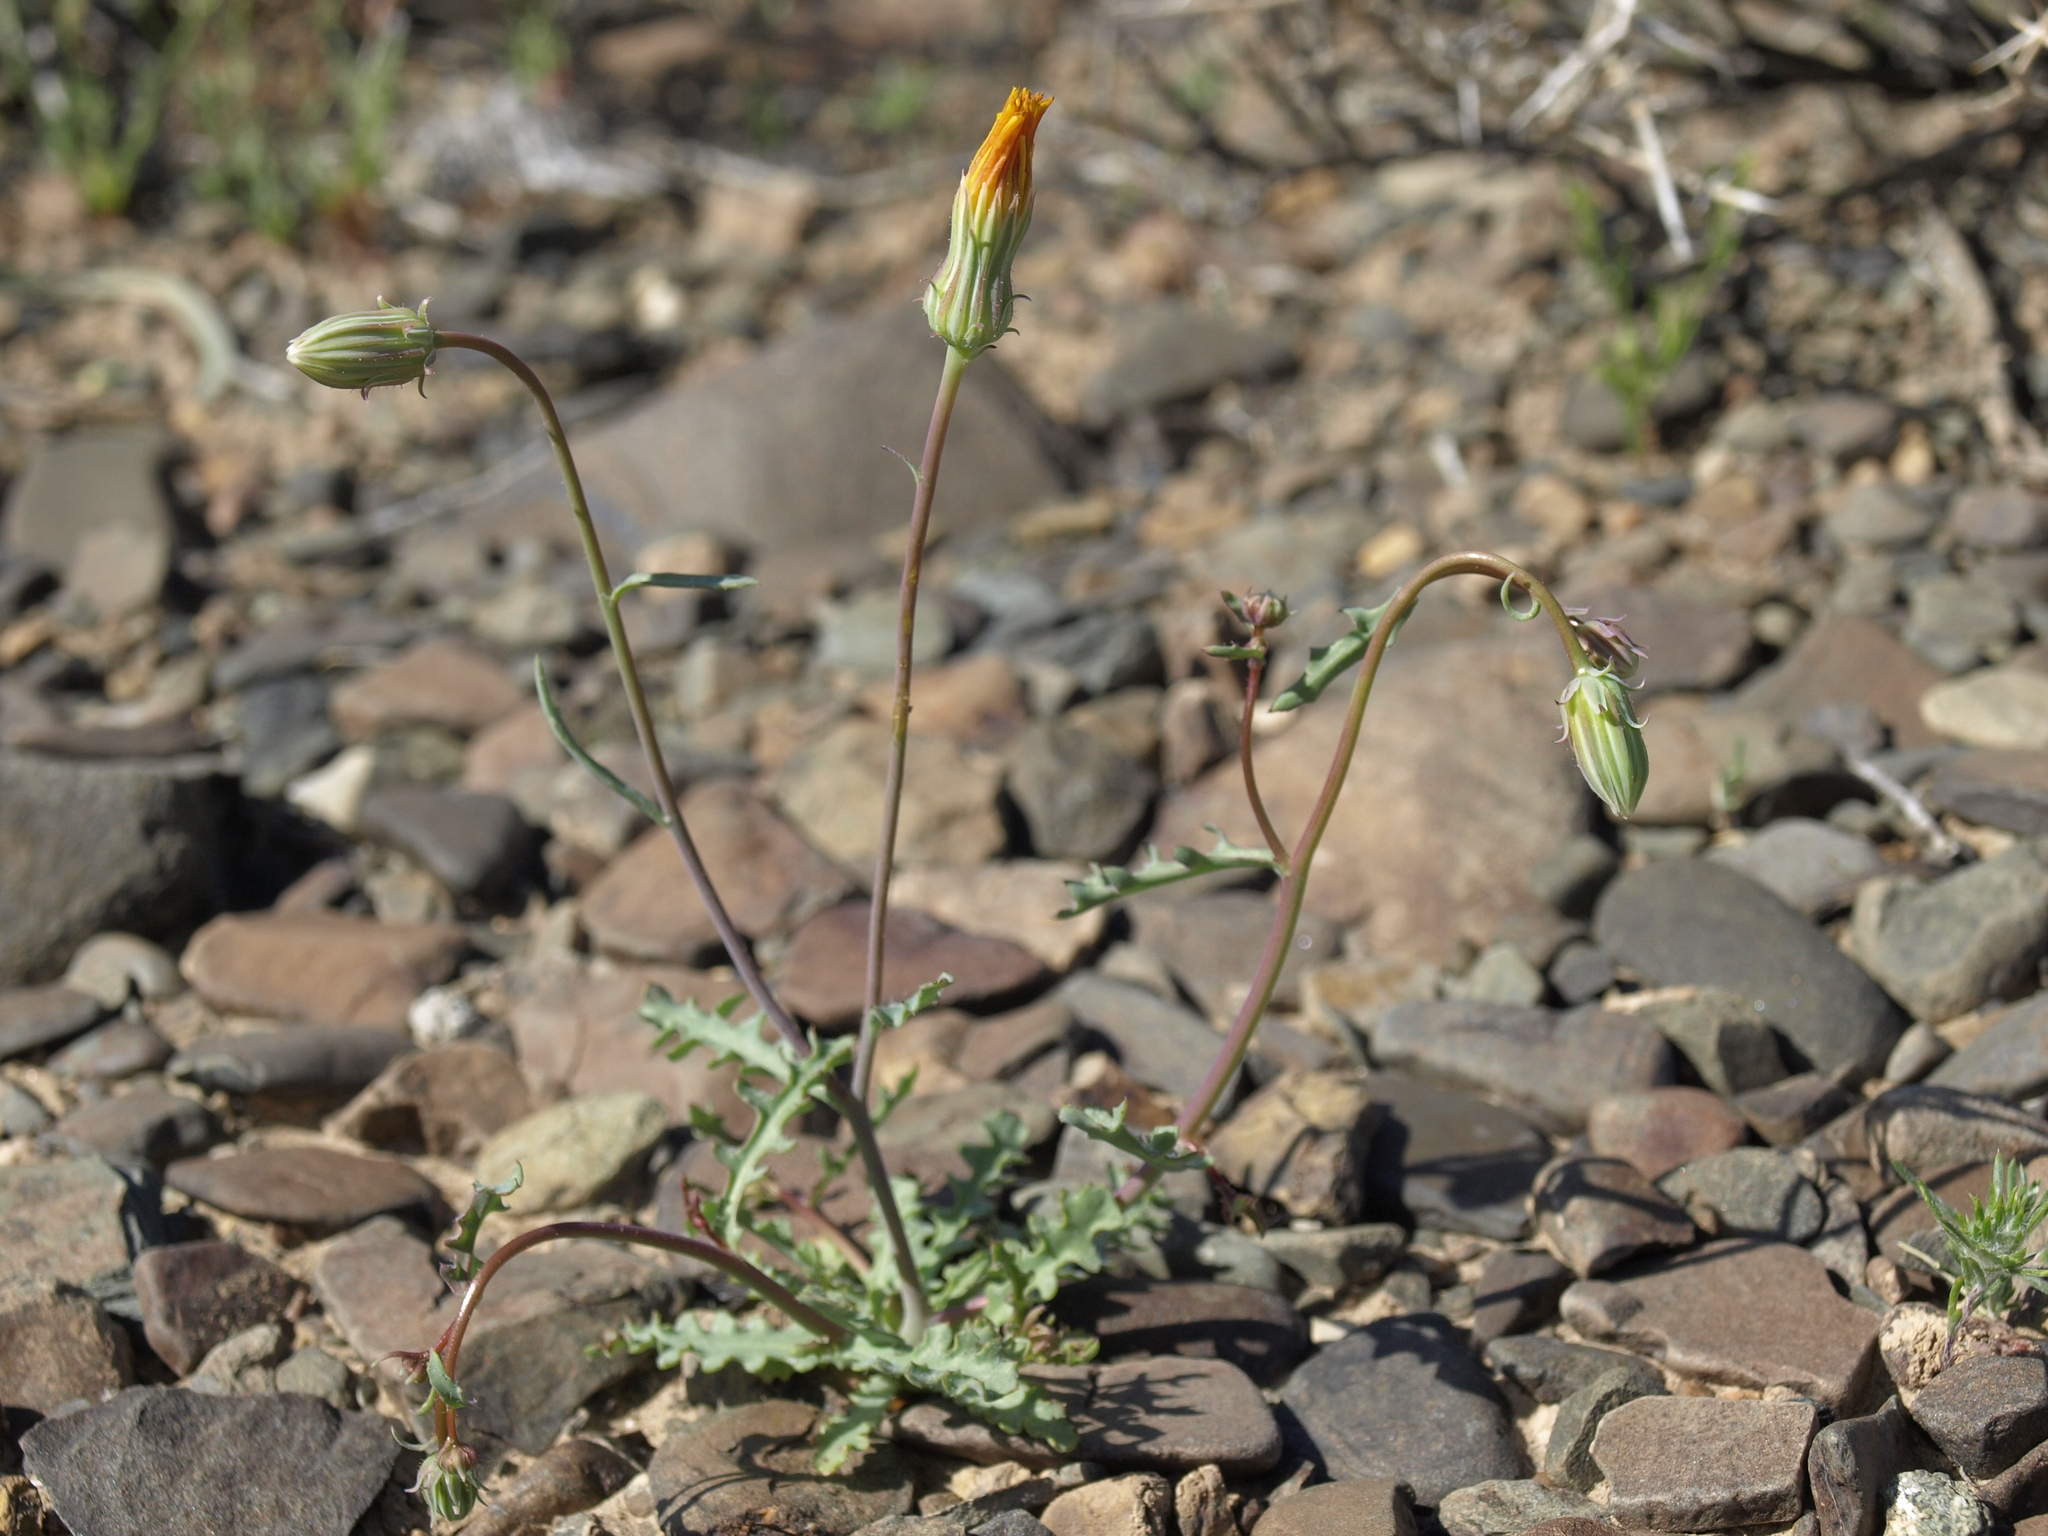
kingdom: Plantae
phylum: Tracheophyta
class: Magnoliopsida
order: Asterales
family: Asteraceae
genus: Malacothrix
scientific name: Malacothrix torreyi
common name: Torrey's desert-dandelion
